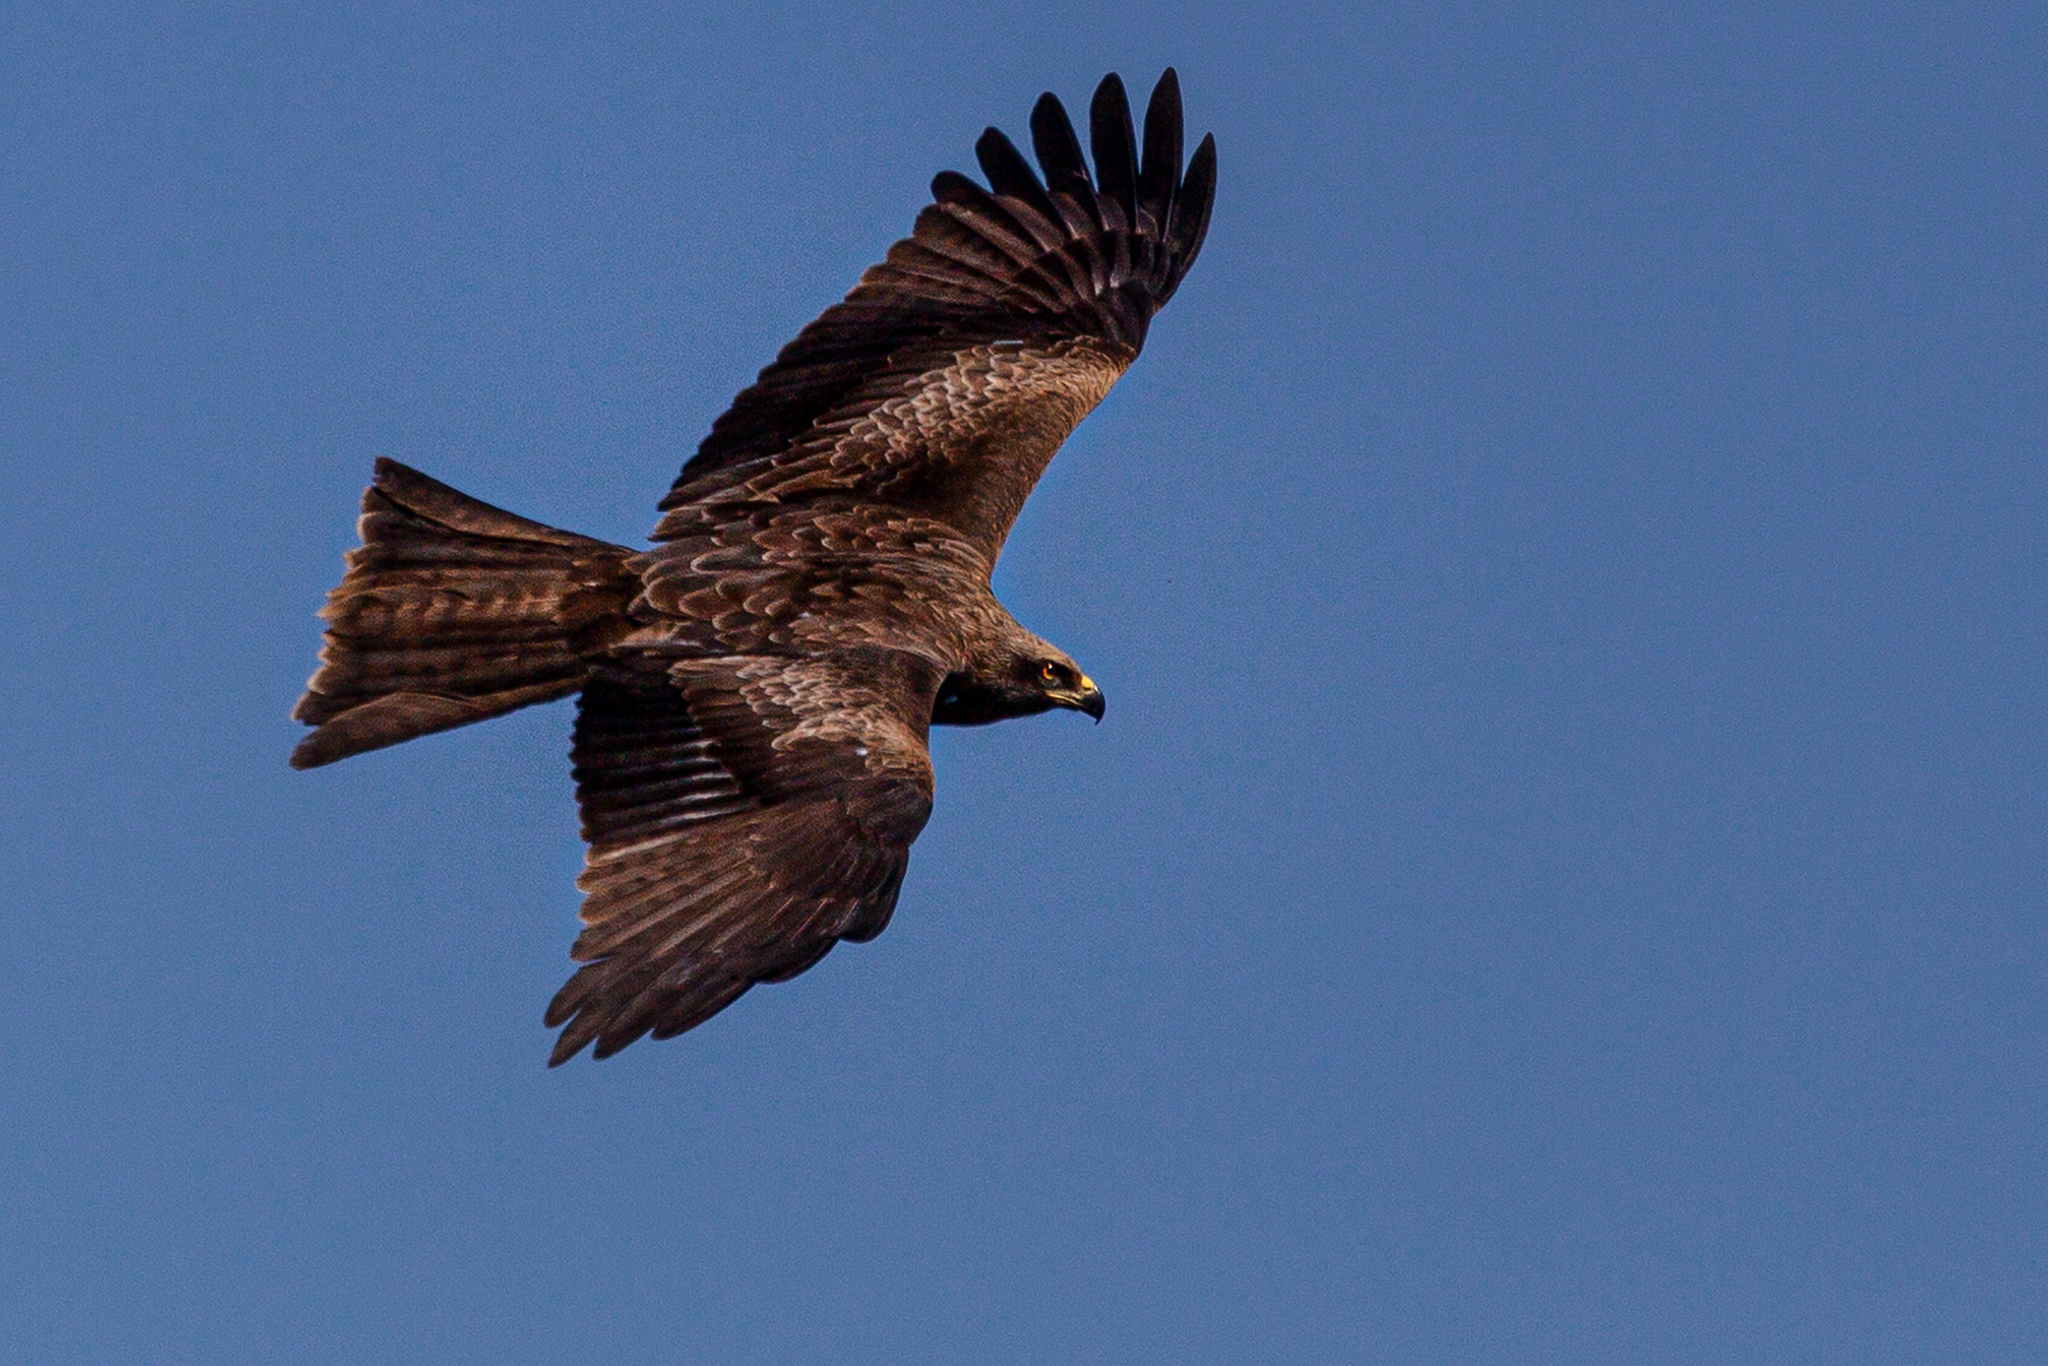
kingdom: Animalia
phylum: Chordata
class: Aves
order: Accipitriformes
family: Accipitridae
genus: Milvus
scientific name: Milvus migrans
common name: Black kite
